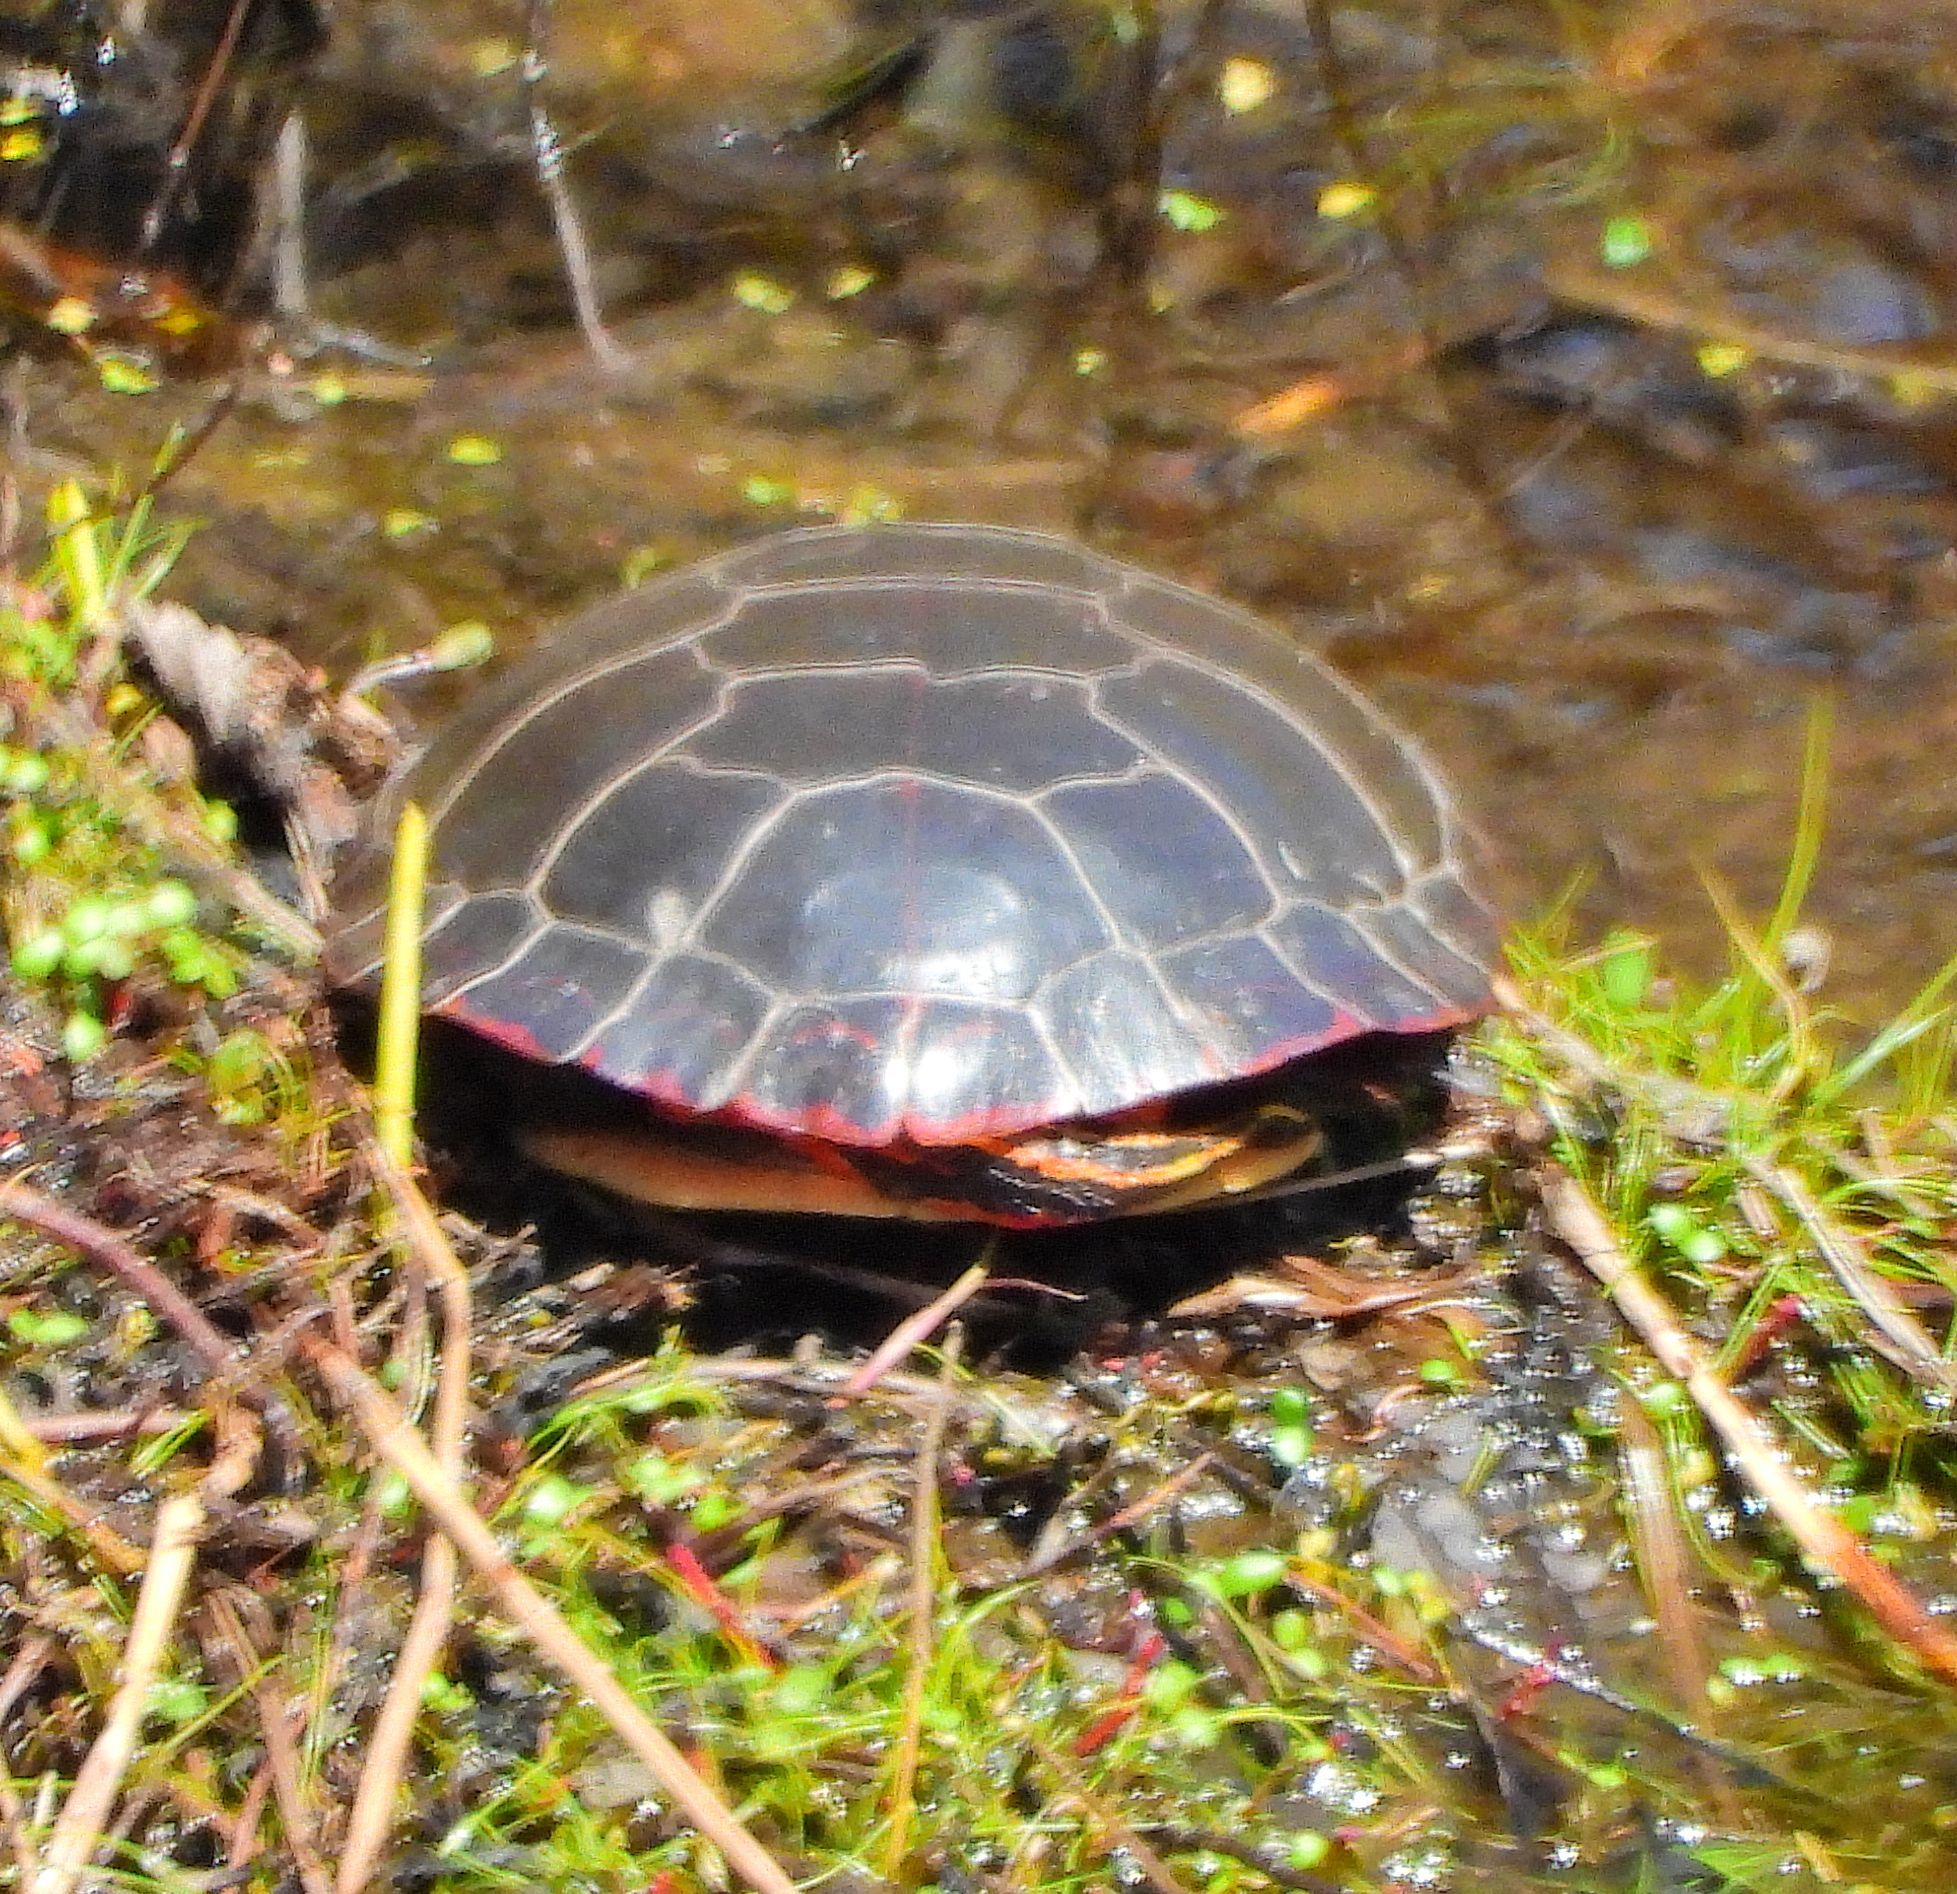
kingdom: Animalia
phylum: Chordata
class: Testudines
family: Emydidae
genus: Chrysemys
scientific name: Chrysemys picta
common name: Painted turtle
